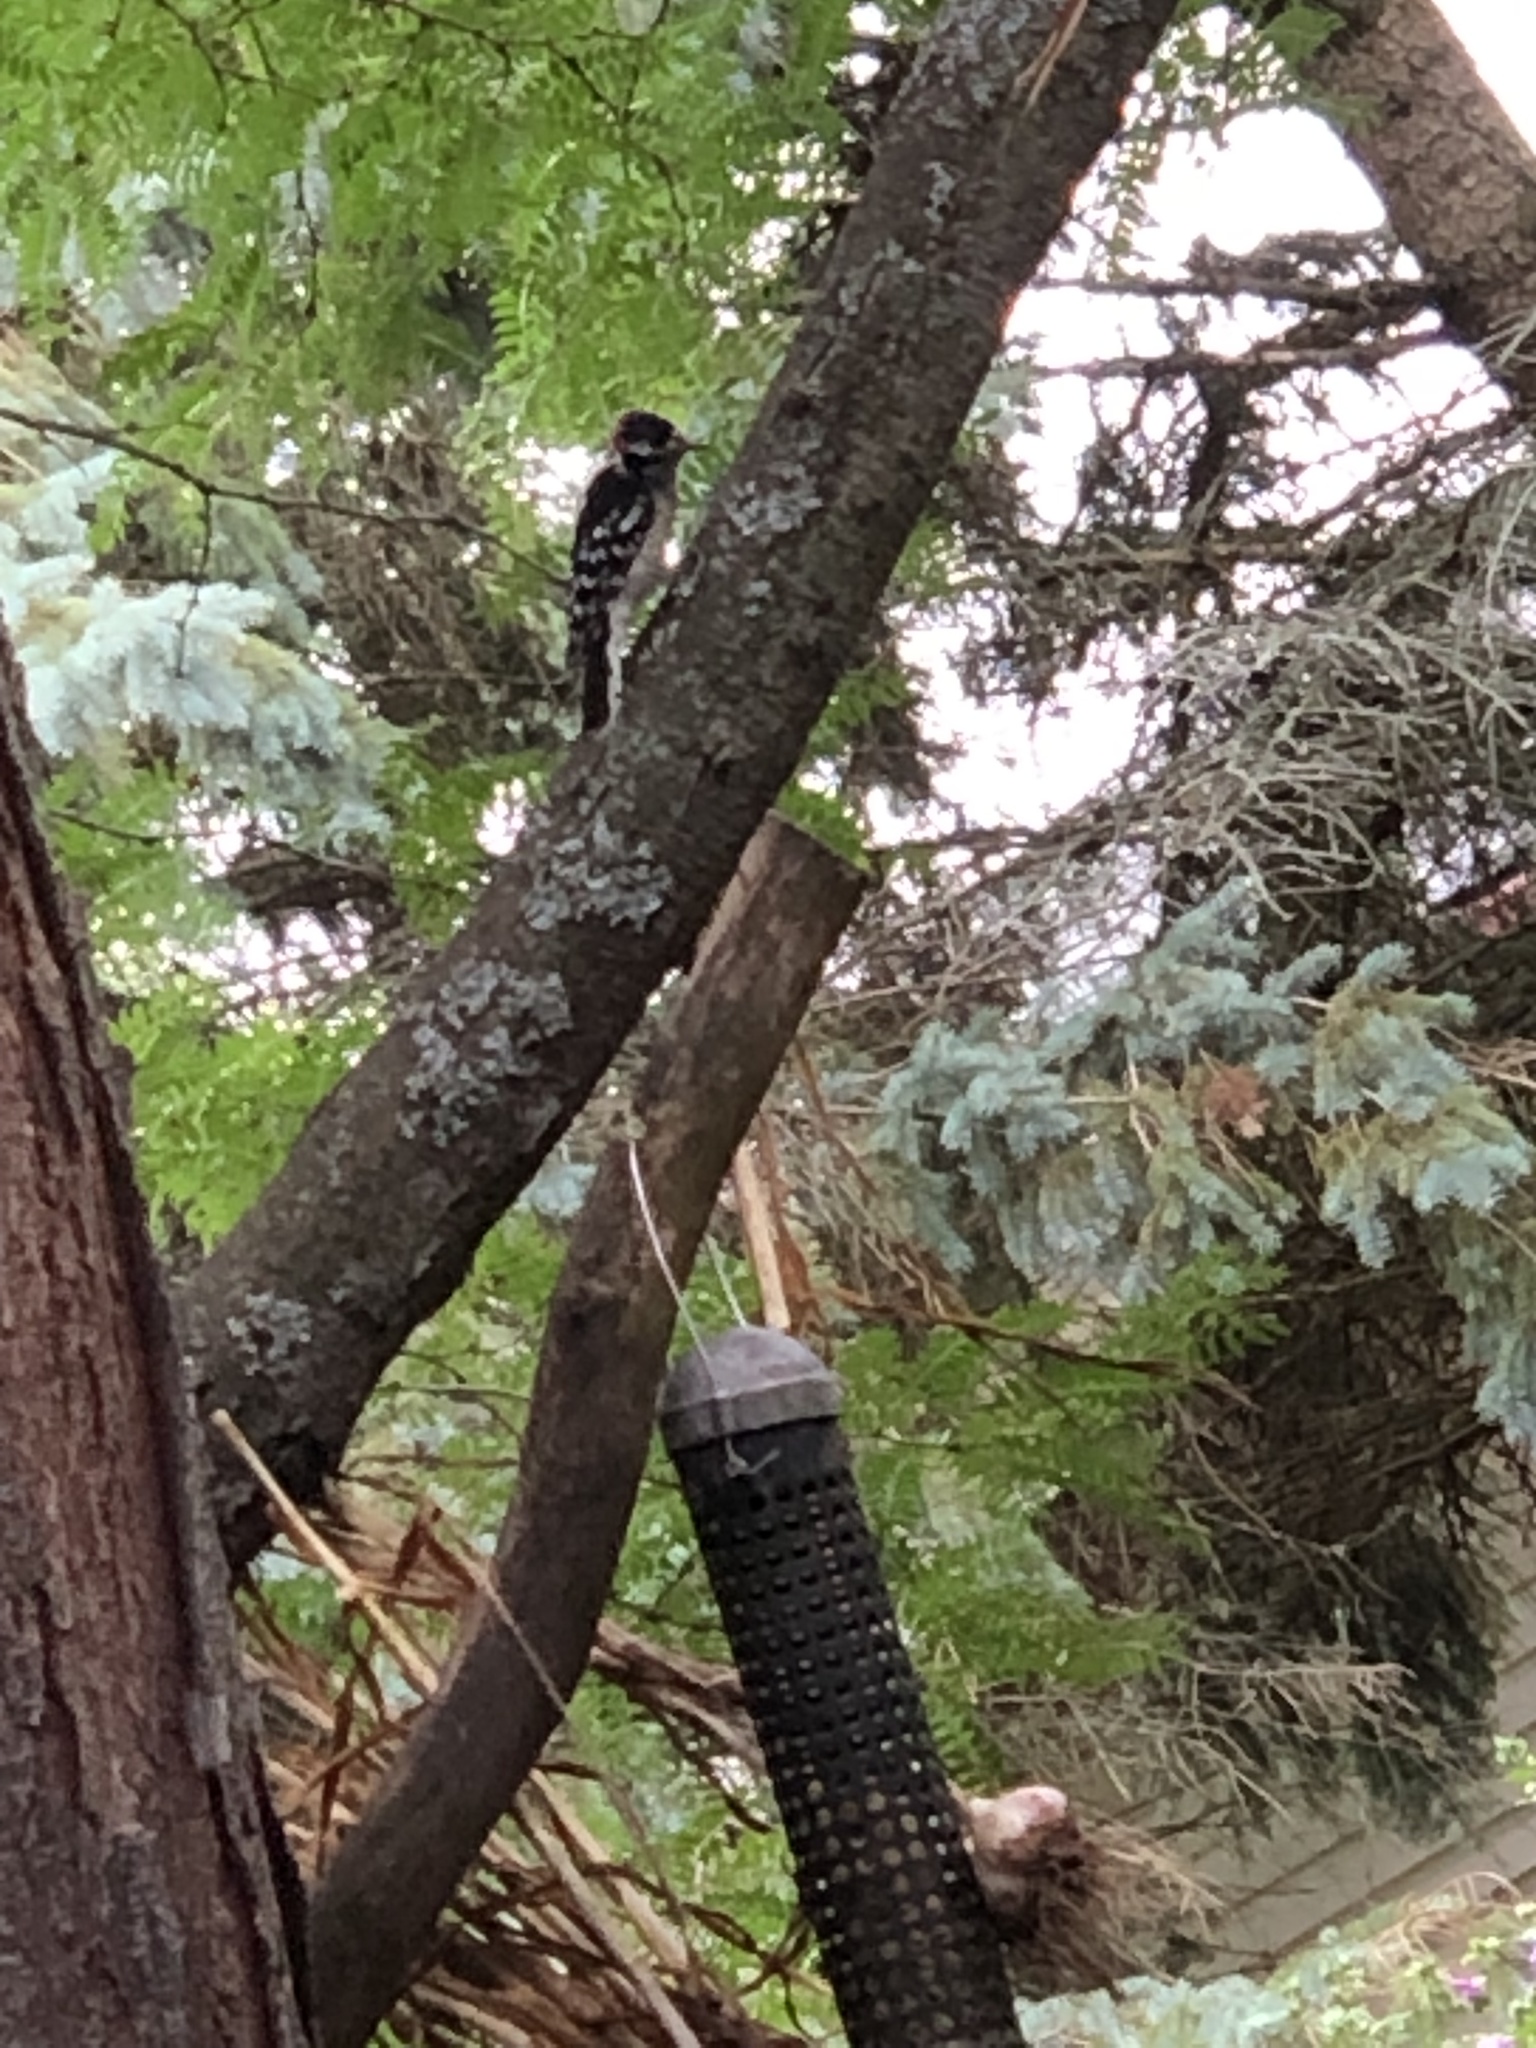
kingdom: Animalia
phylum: Chordata
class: Aves
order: Piciformes
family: Picidae
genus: Dryobates
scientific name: Dryobates pubescens
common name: Downy woodpecker
